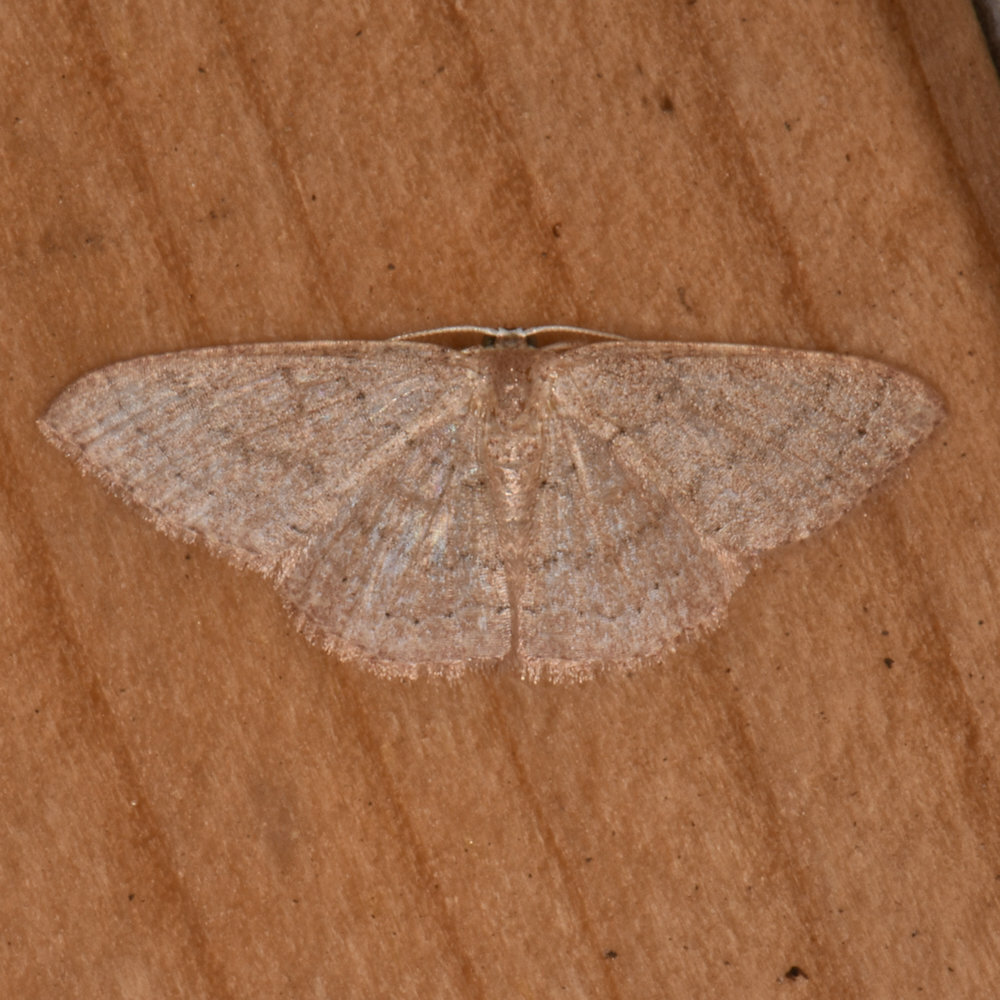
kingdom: Animalia
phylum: Arthropoda
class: Insecta
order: Lepidoptera
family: Geometridae
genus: Pleuroprucha
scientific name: Pleuroprucha insulsaria
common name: Common tan wave
